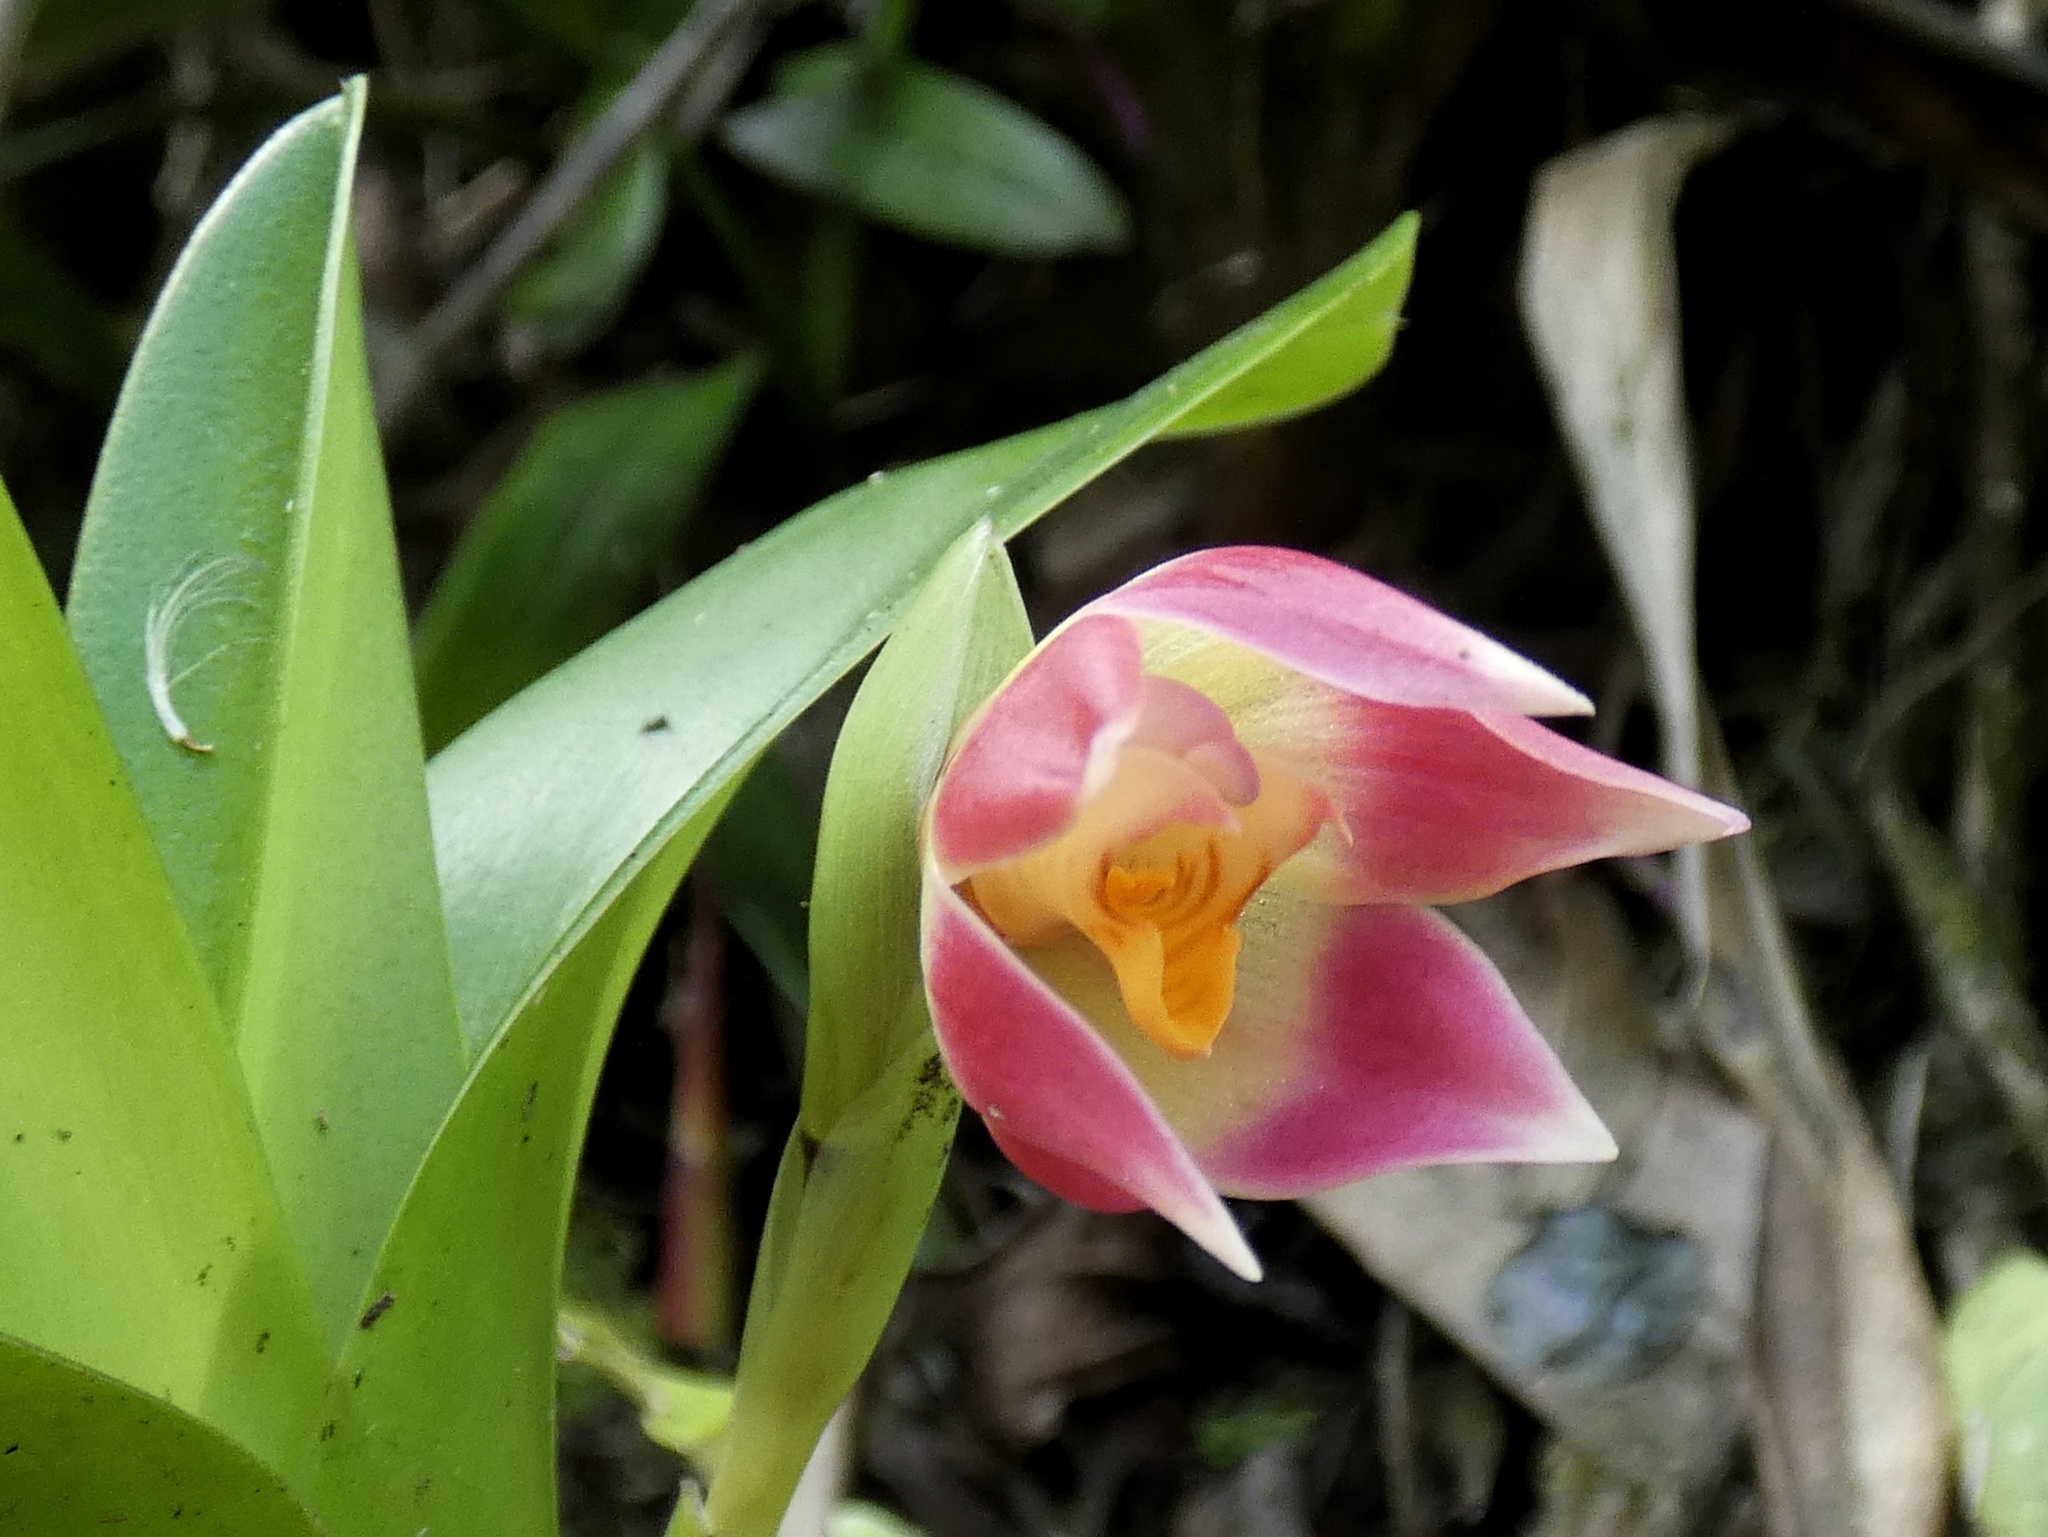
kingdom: Plantae
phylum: Tracheophyta
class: Liliopsida
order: Asparagales
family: Orchidaceae
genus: Maxillaria
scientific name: Maxillaria bradeorum
